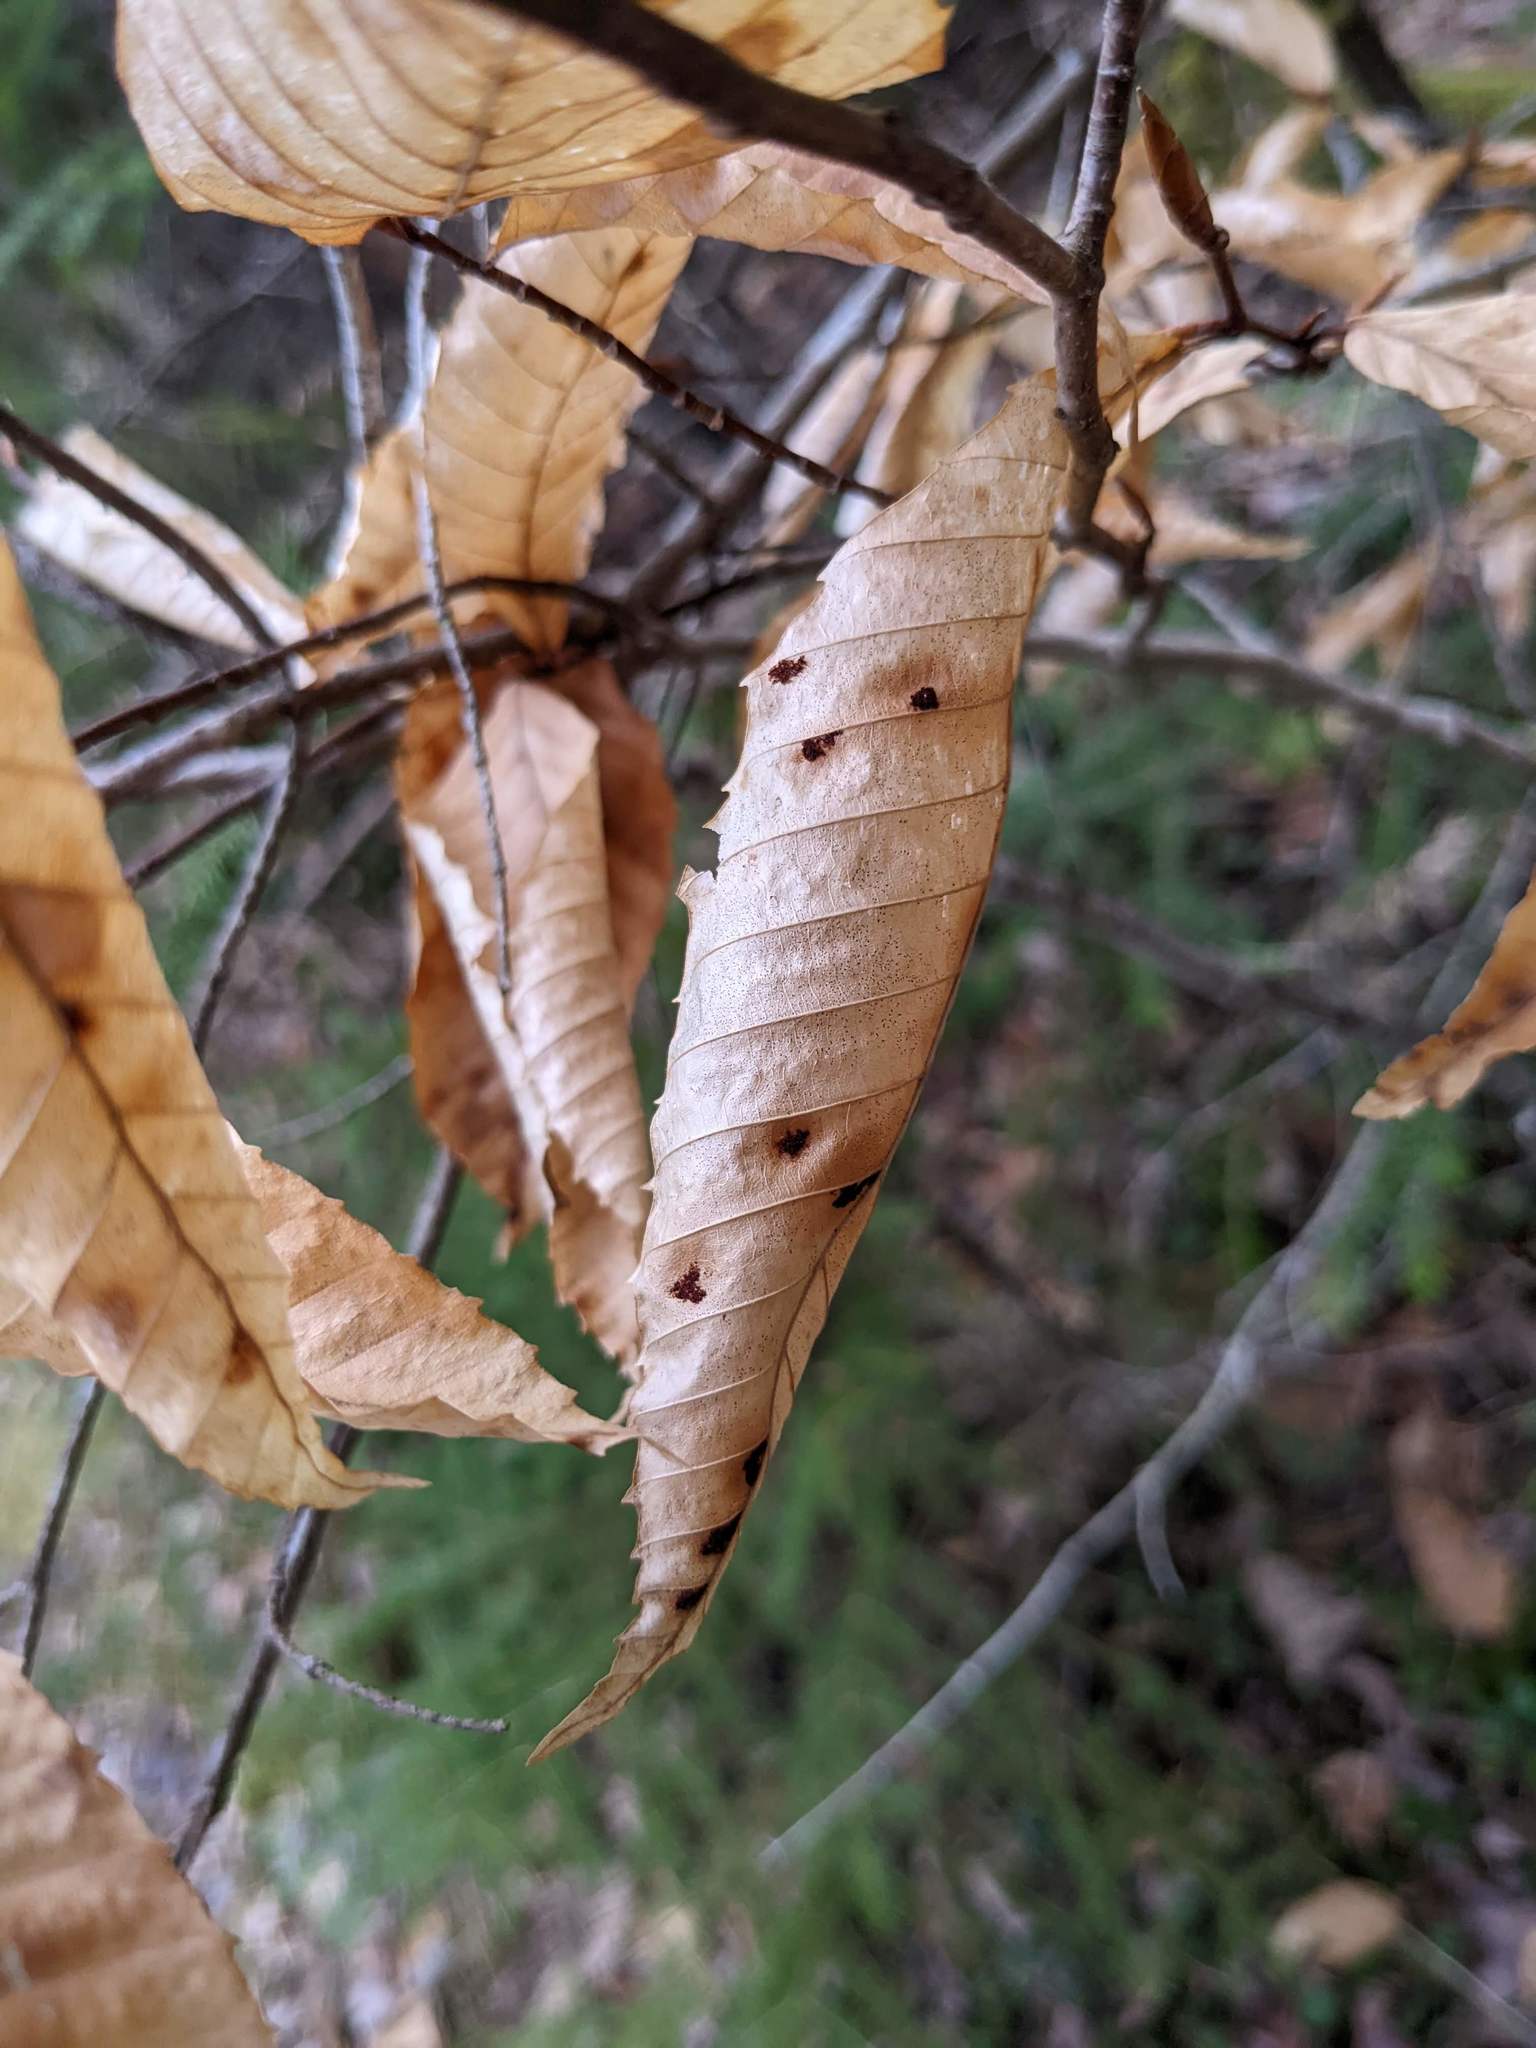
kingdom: Plantae
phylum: Tracheophyta
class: Magnoliopsida
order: Fagales
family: Fagaceae
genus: Fagus
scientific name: Fagus grandifolia
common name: American beech
